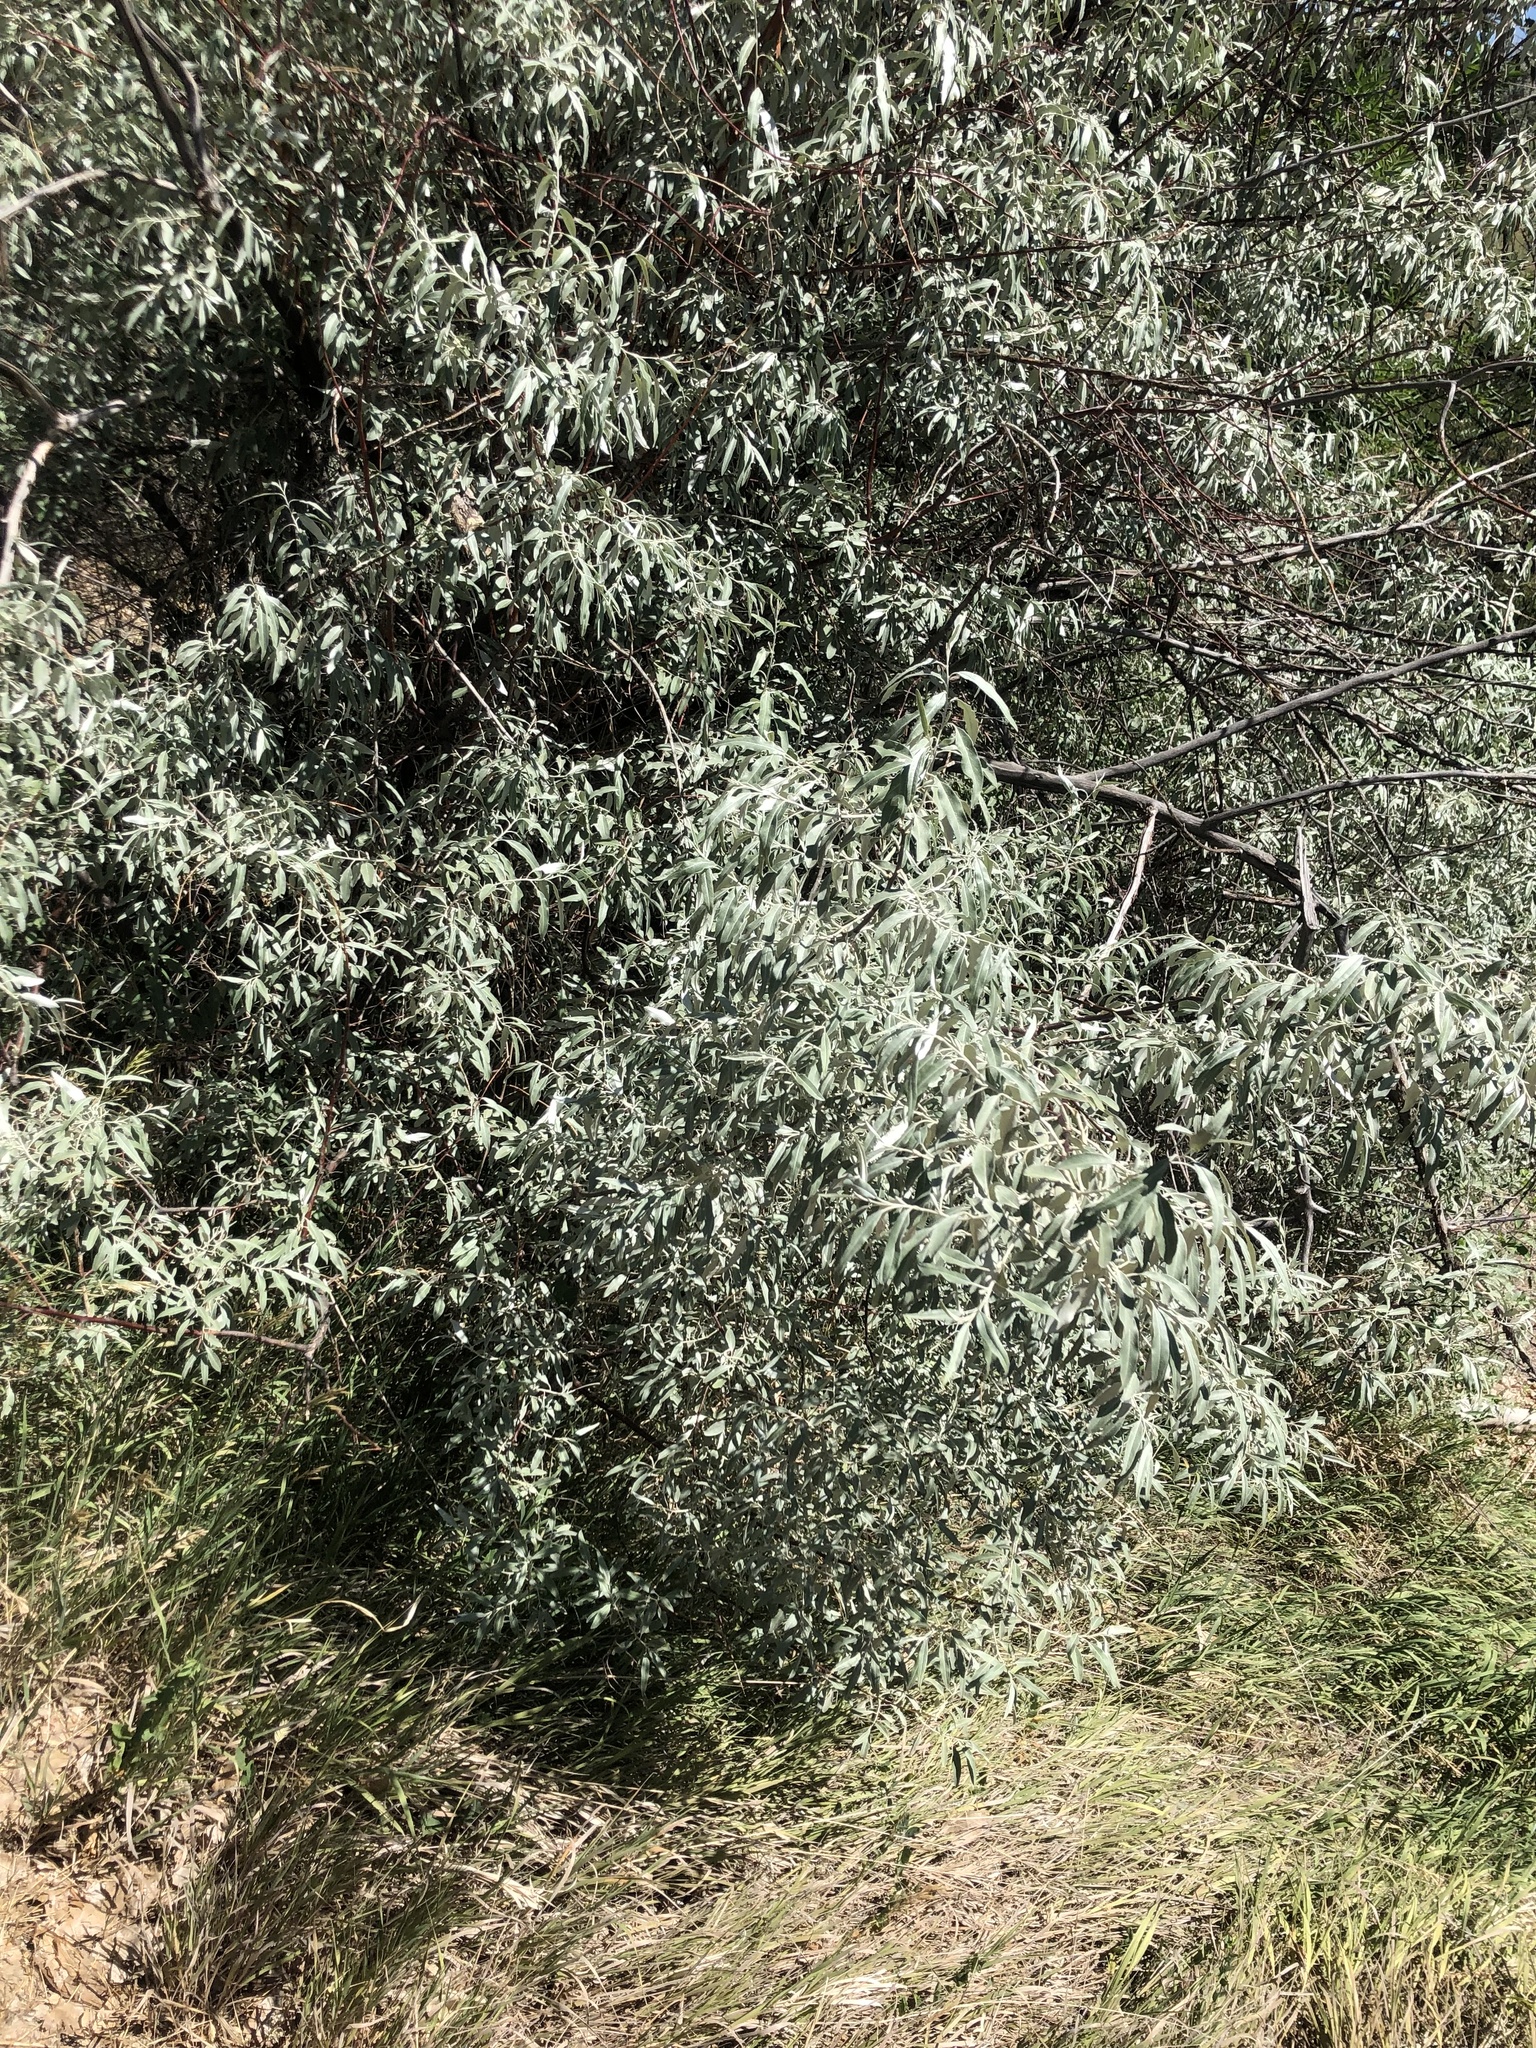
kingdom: Plantae
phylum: Tracheophyta
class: Magnoliopsida
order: Rosales
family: Elaeagnaceae
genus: Elaeagnus
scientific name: Elaeagnus angustifolia
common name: Russian olive
